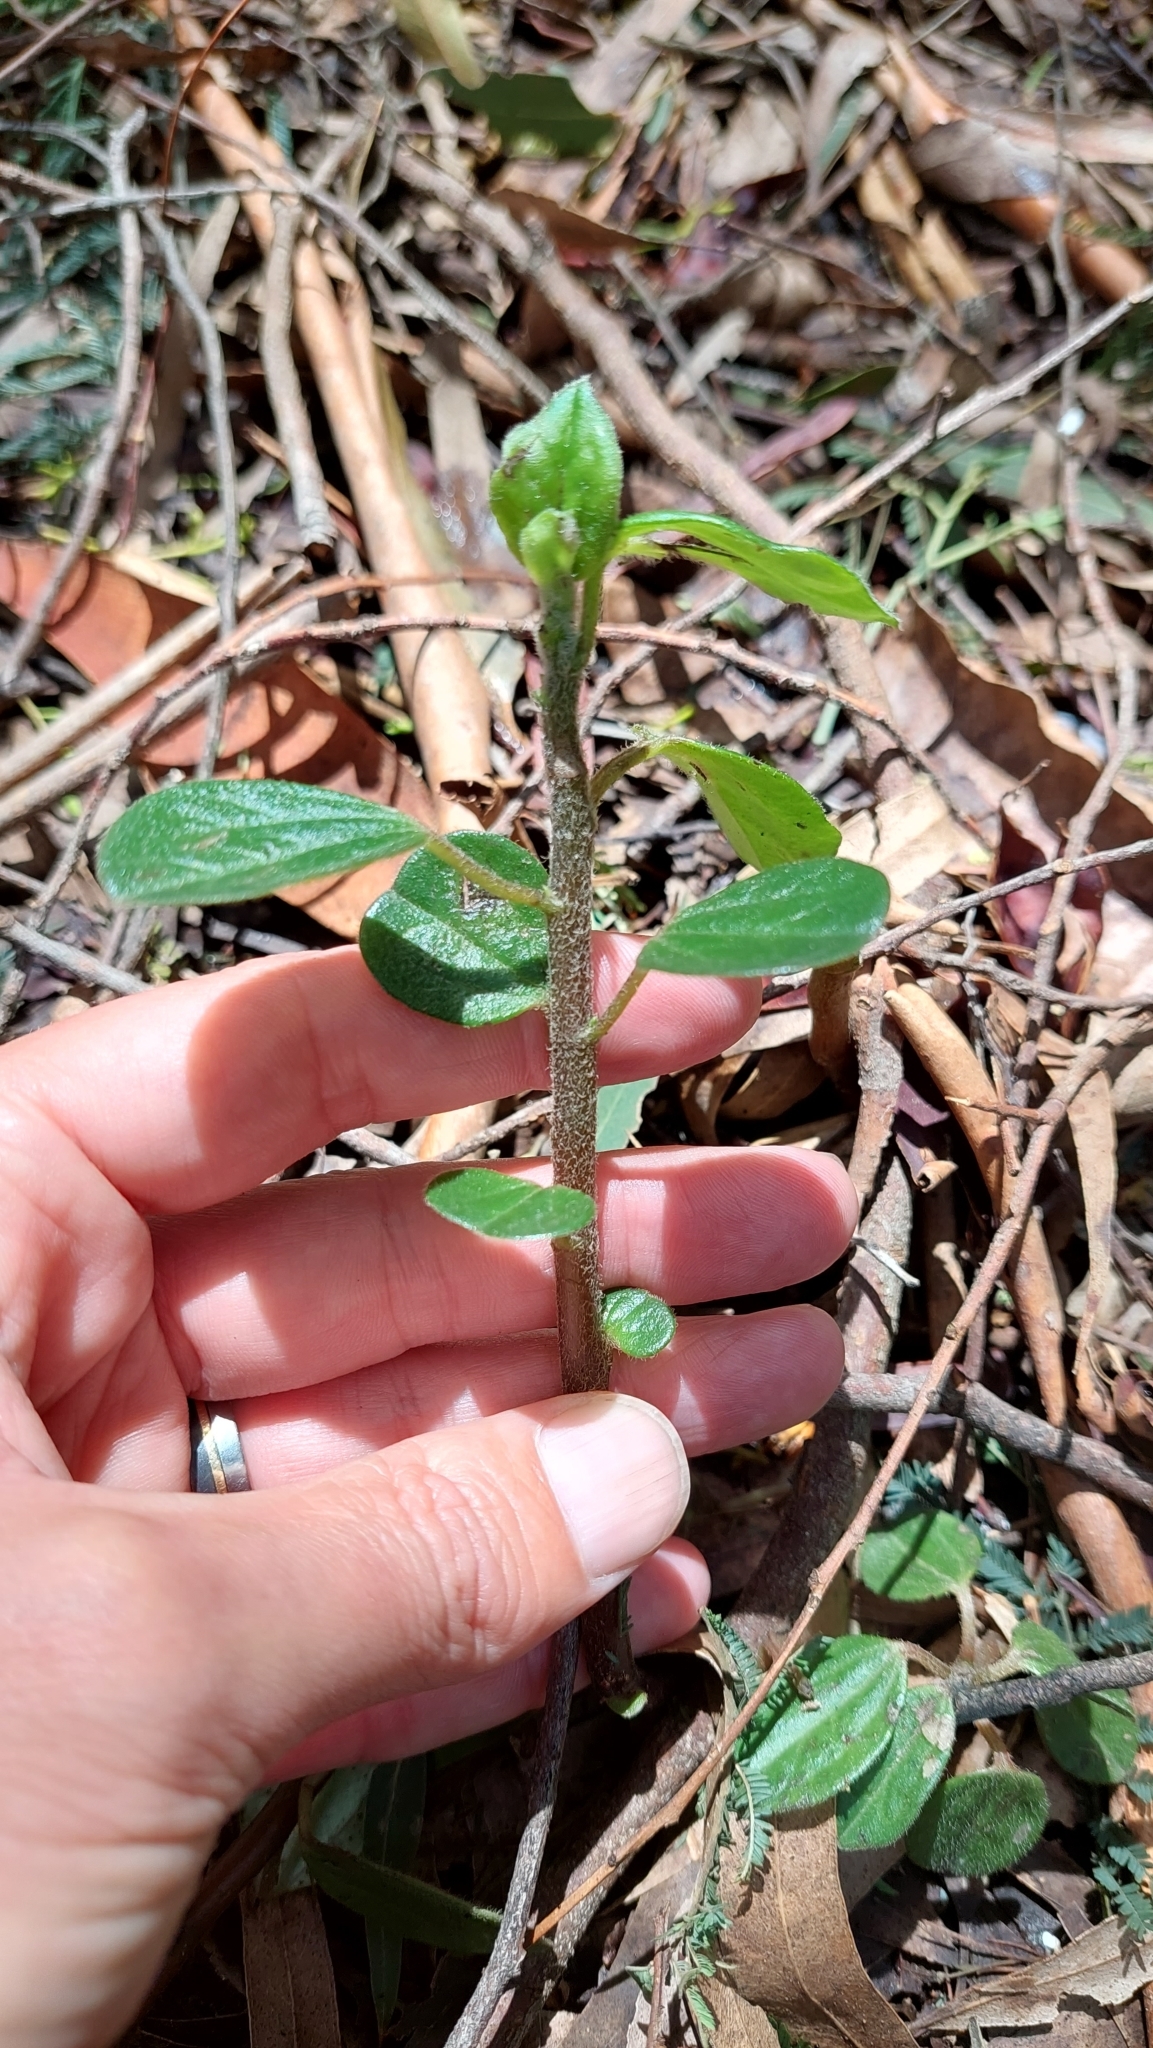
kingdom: Plantae
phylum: Tracheophyta
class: Magnoliopsida
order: Piperales
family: Piperaceae
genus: Peperomia
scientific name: Peperomia tequendamana
